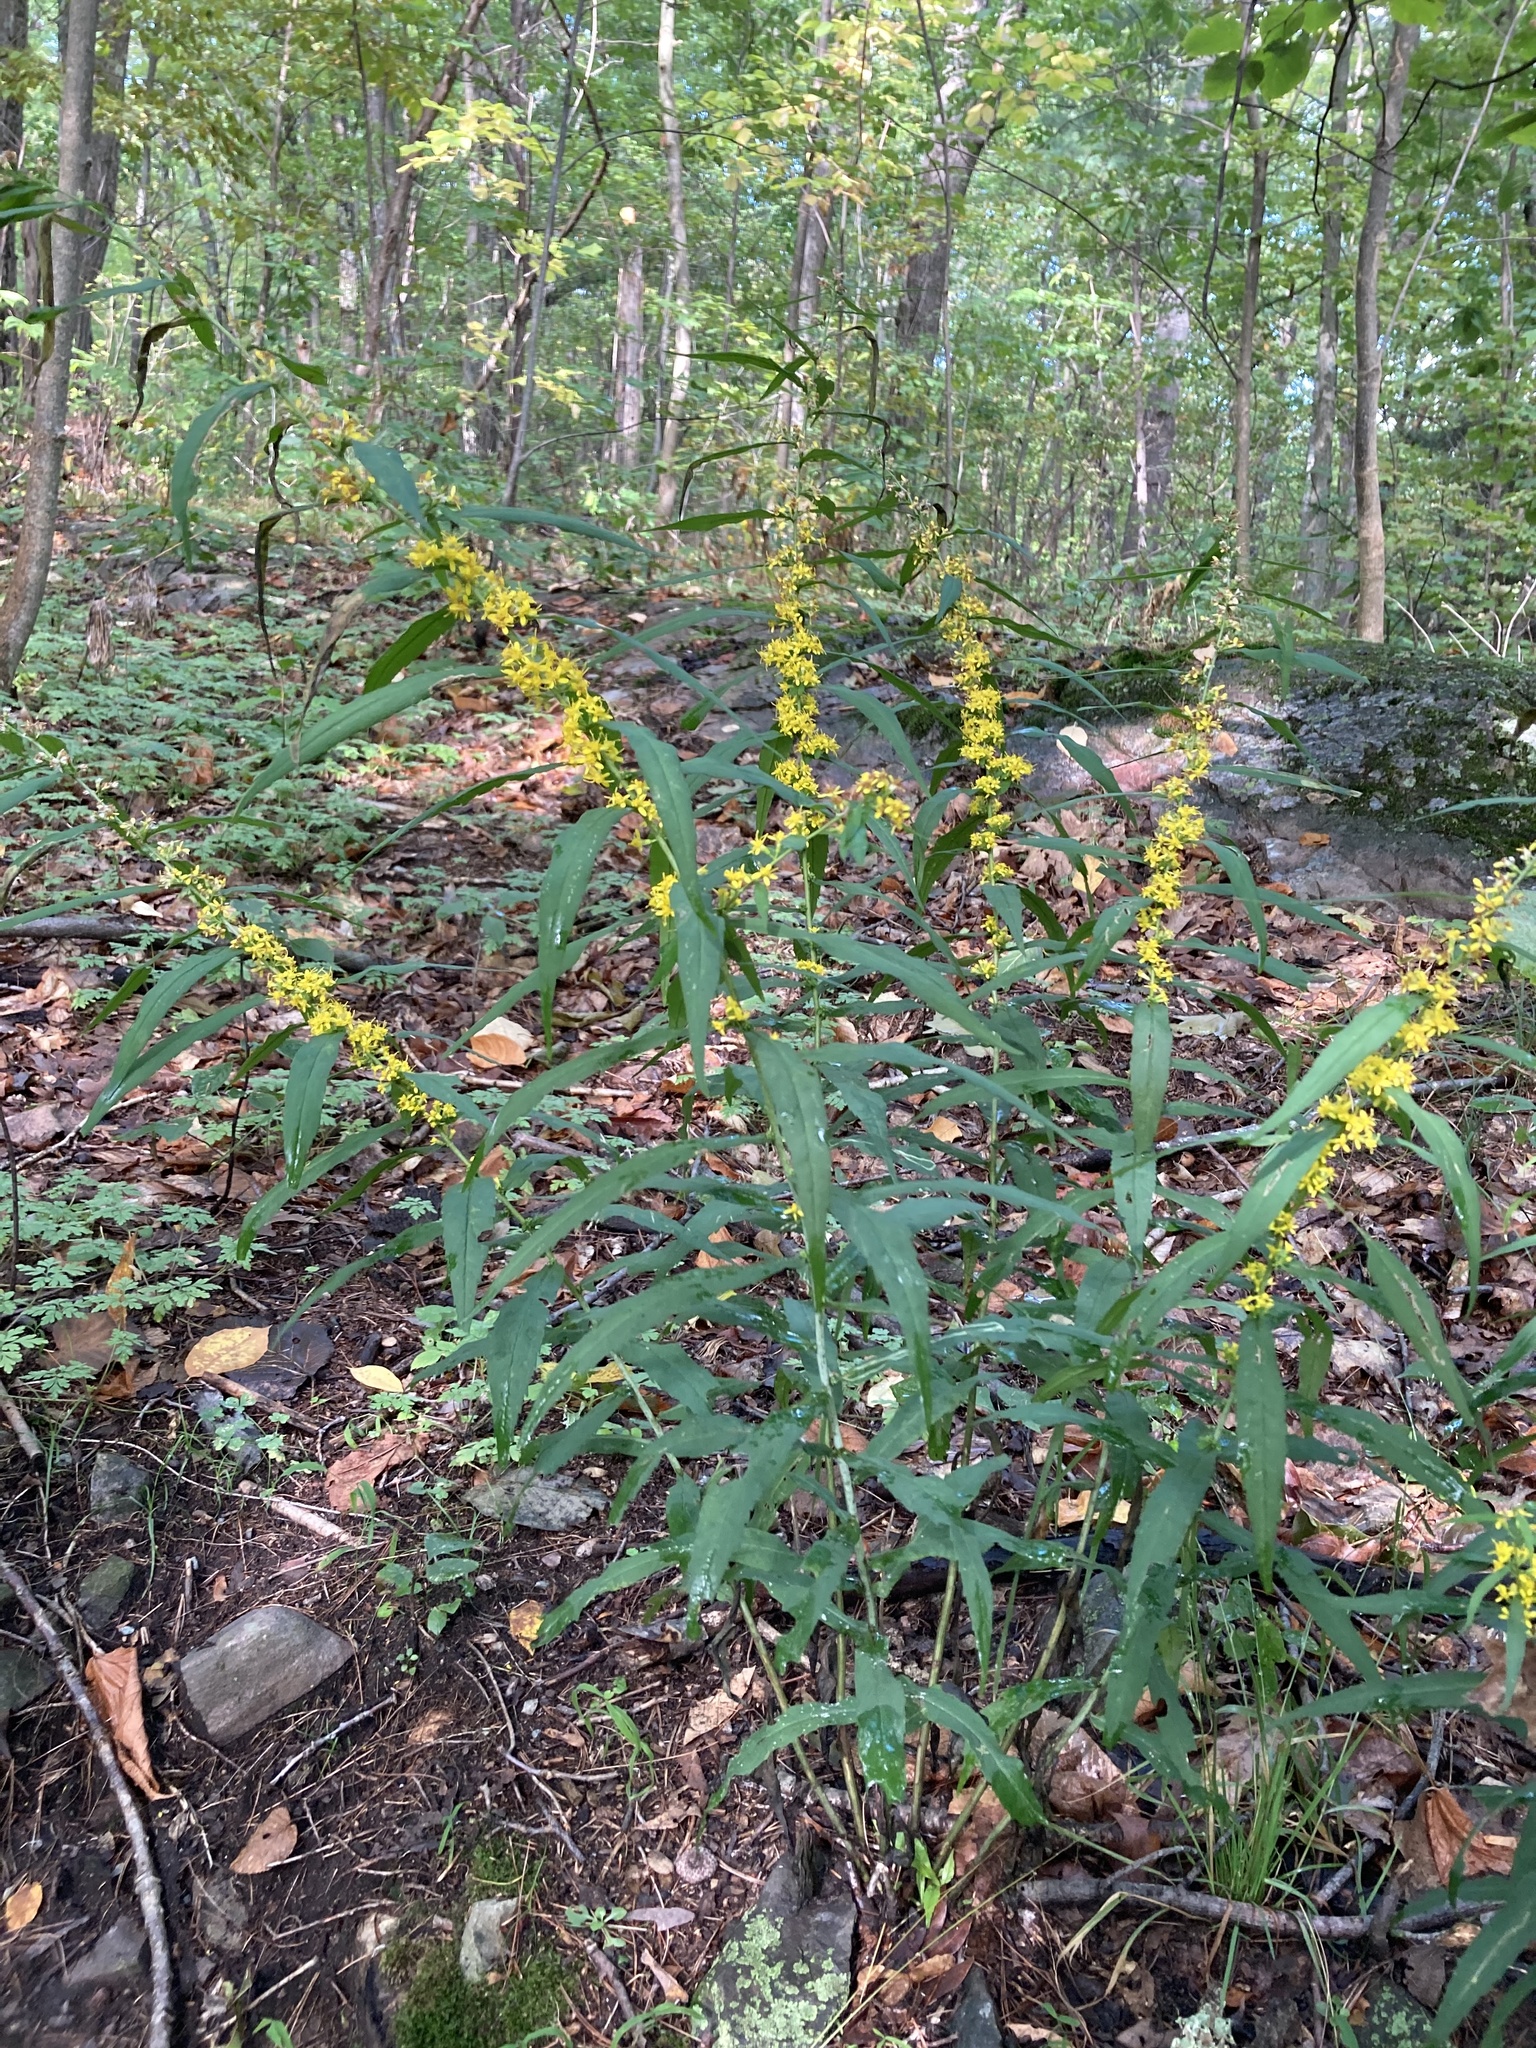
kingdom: Plantae
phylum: Tracheophyta
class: Magnoliopsida
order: Asterales
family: Asteraceae
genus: Solidago
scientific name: Solidago caesia
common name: Woodland goldenrod
